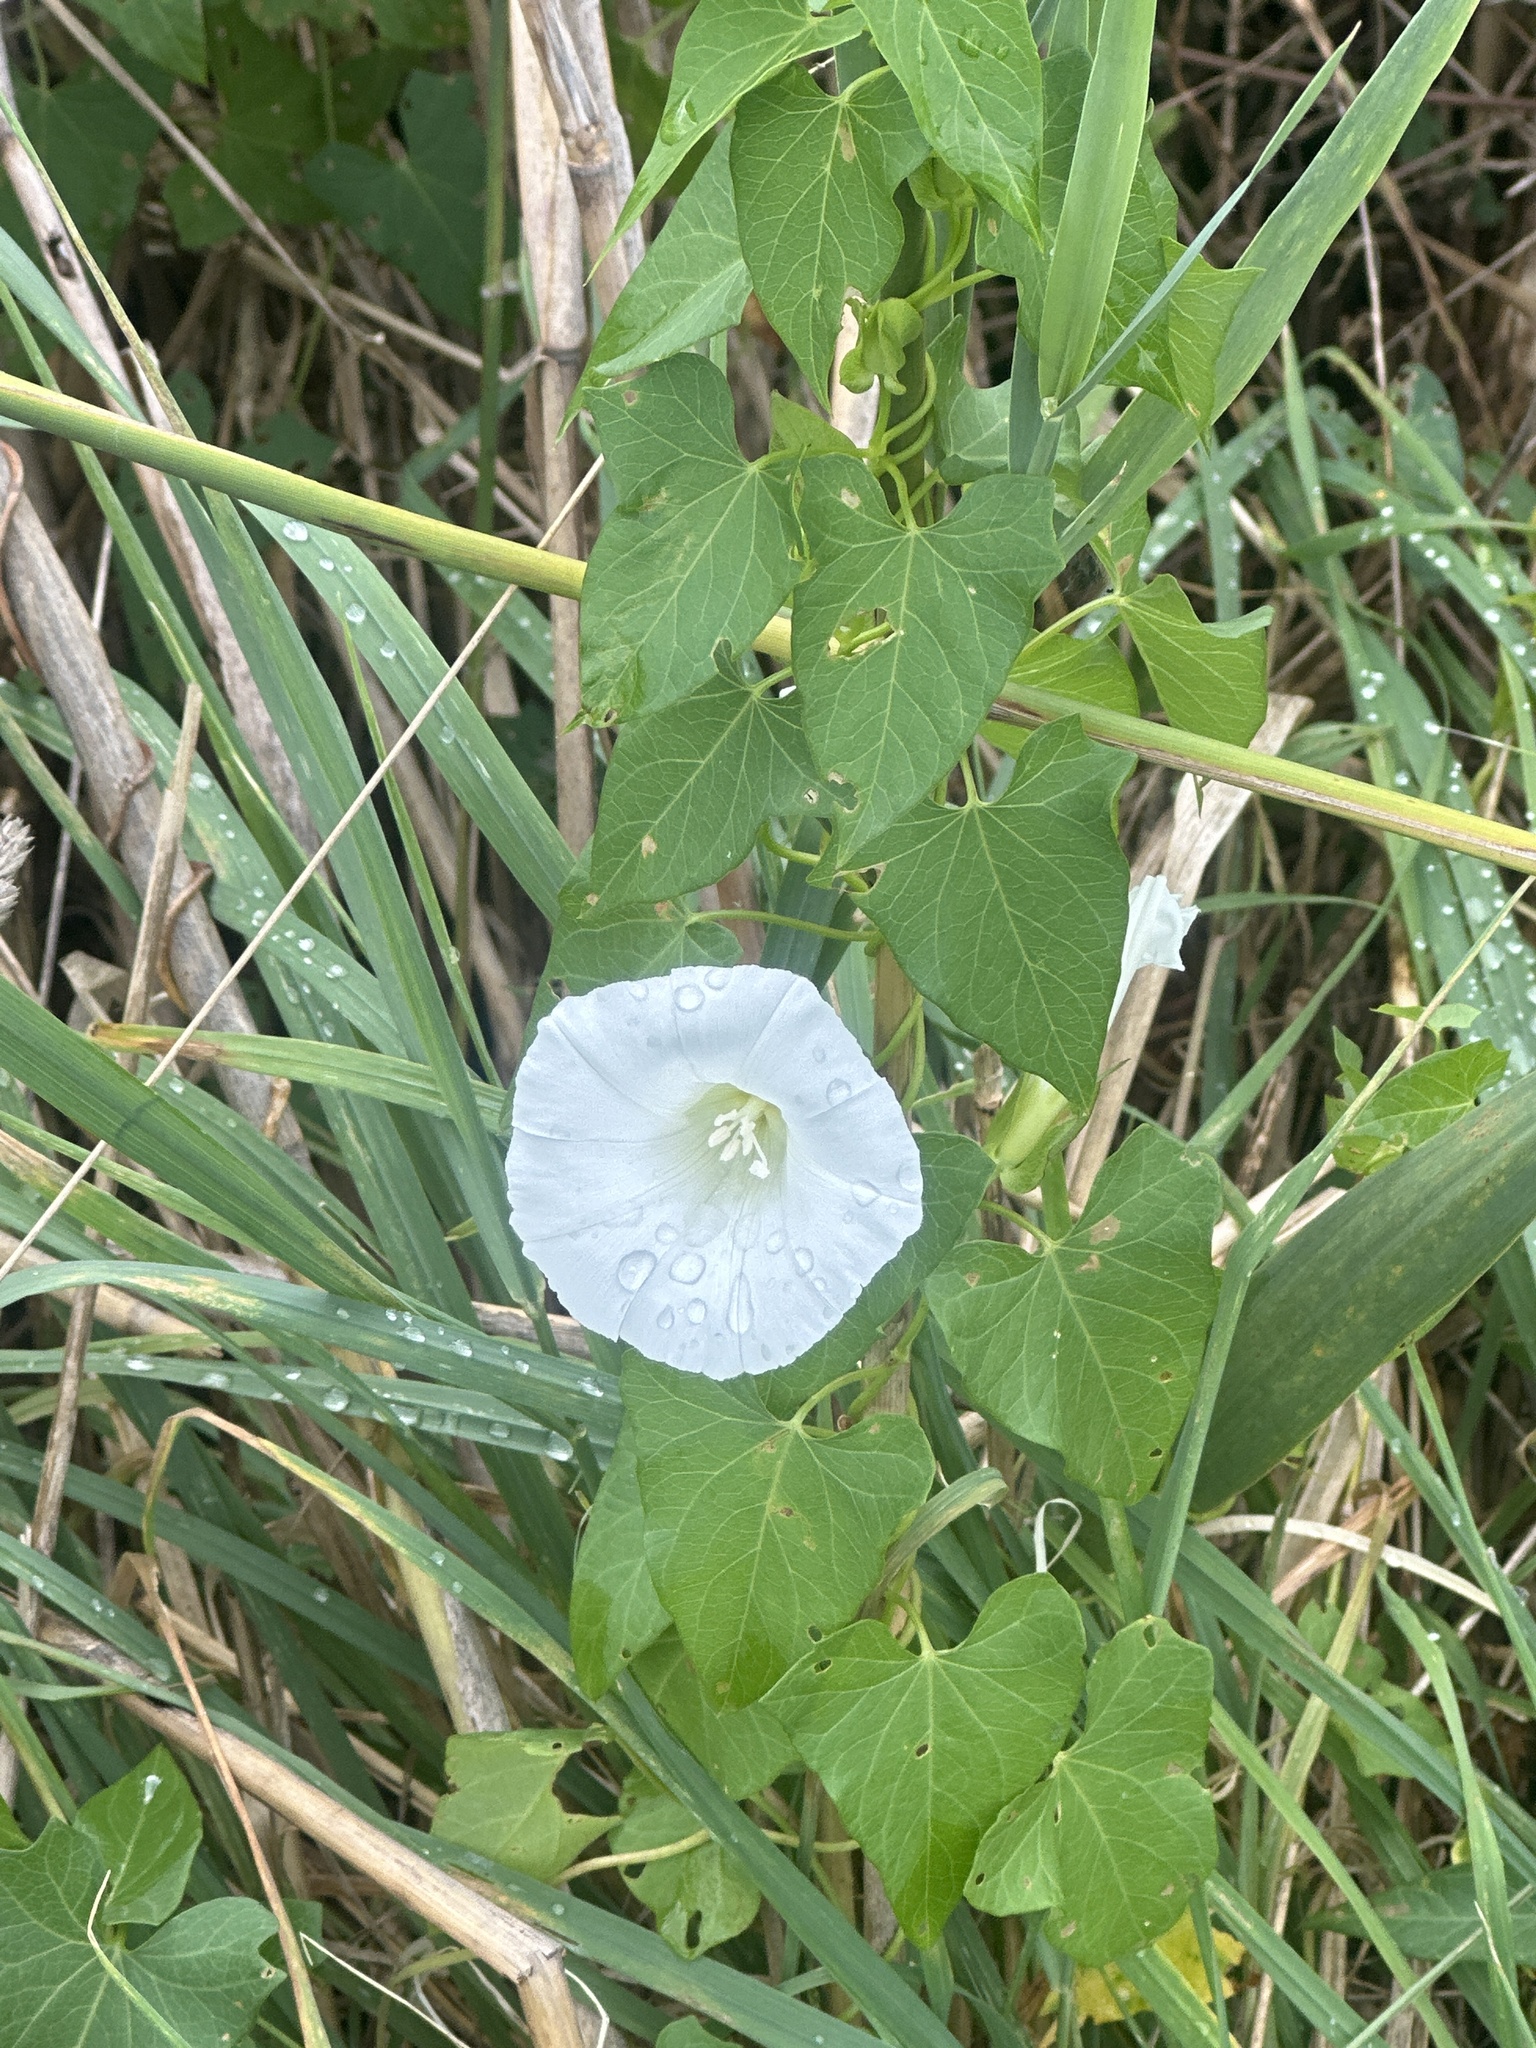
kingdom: Plantae
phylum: Tracheophyta
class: Magnoliopsida
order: Solanales
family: Convolvulaceae
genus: Calystegia
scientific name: Calystegia sepium
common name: Hedge bindweed
